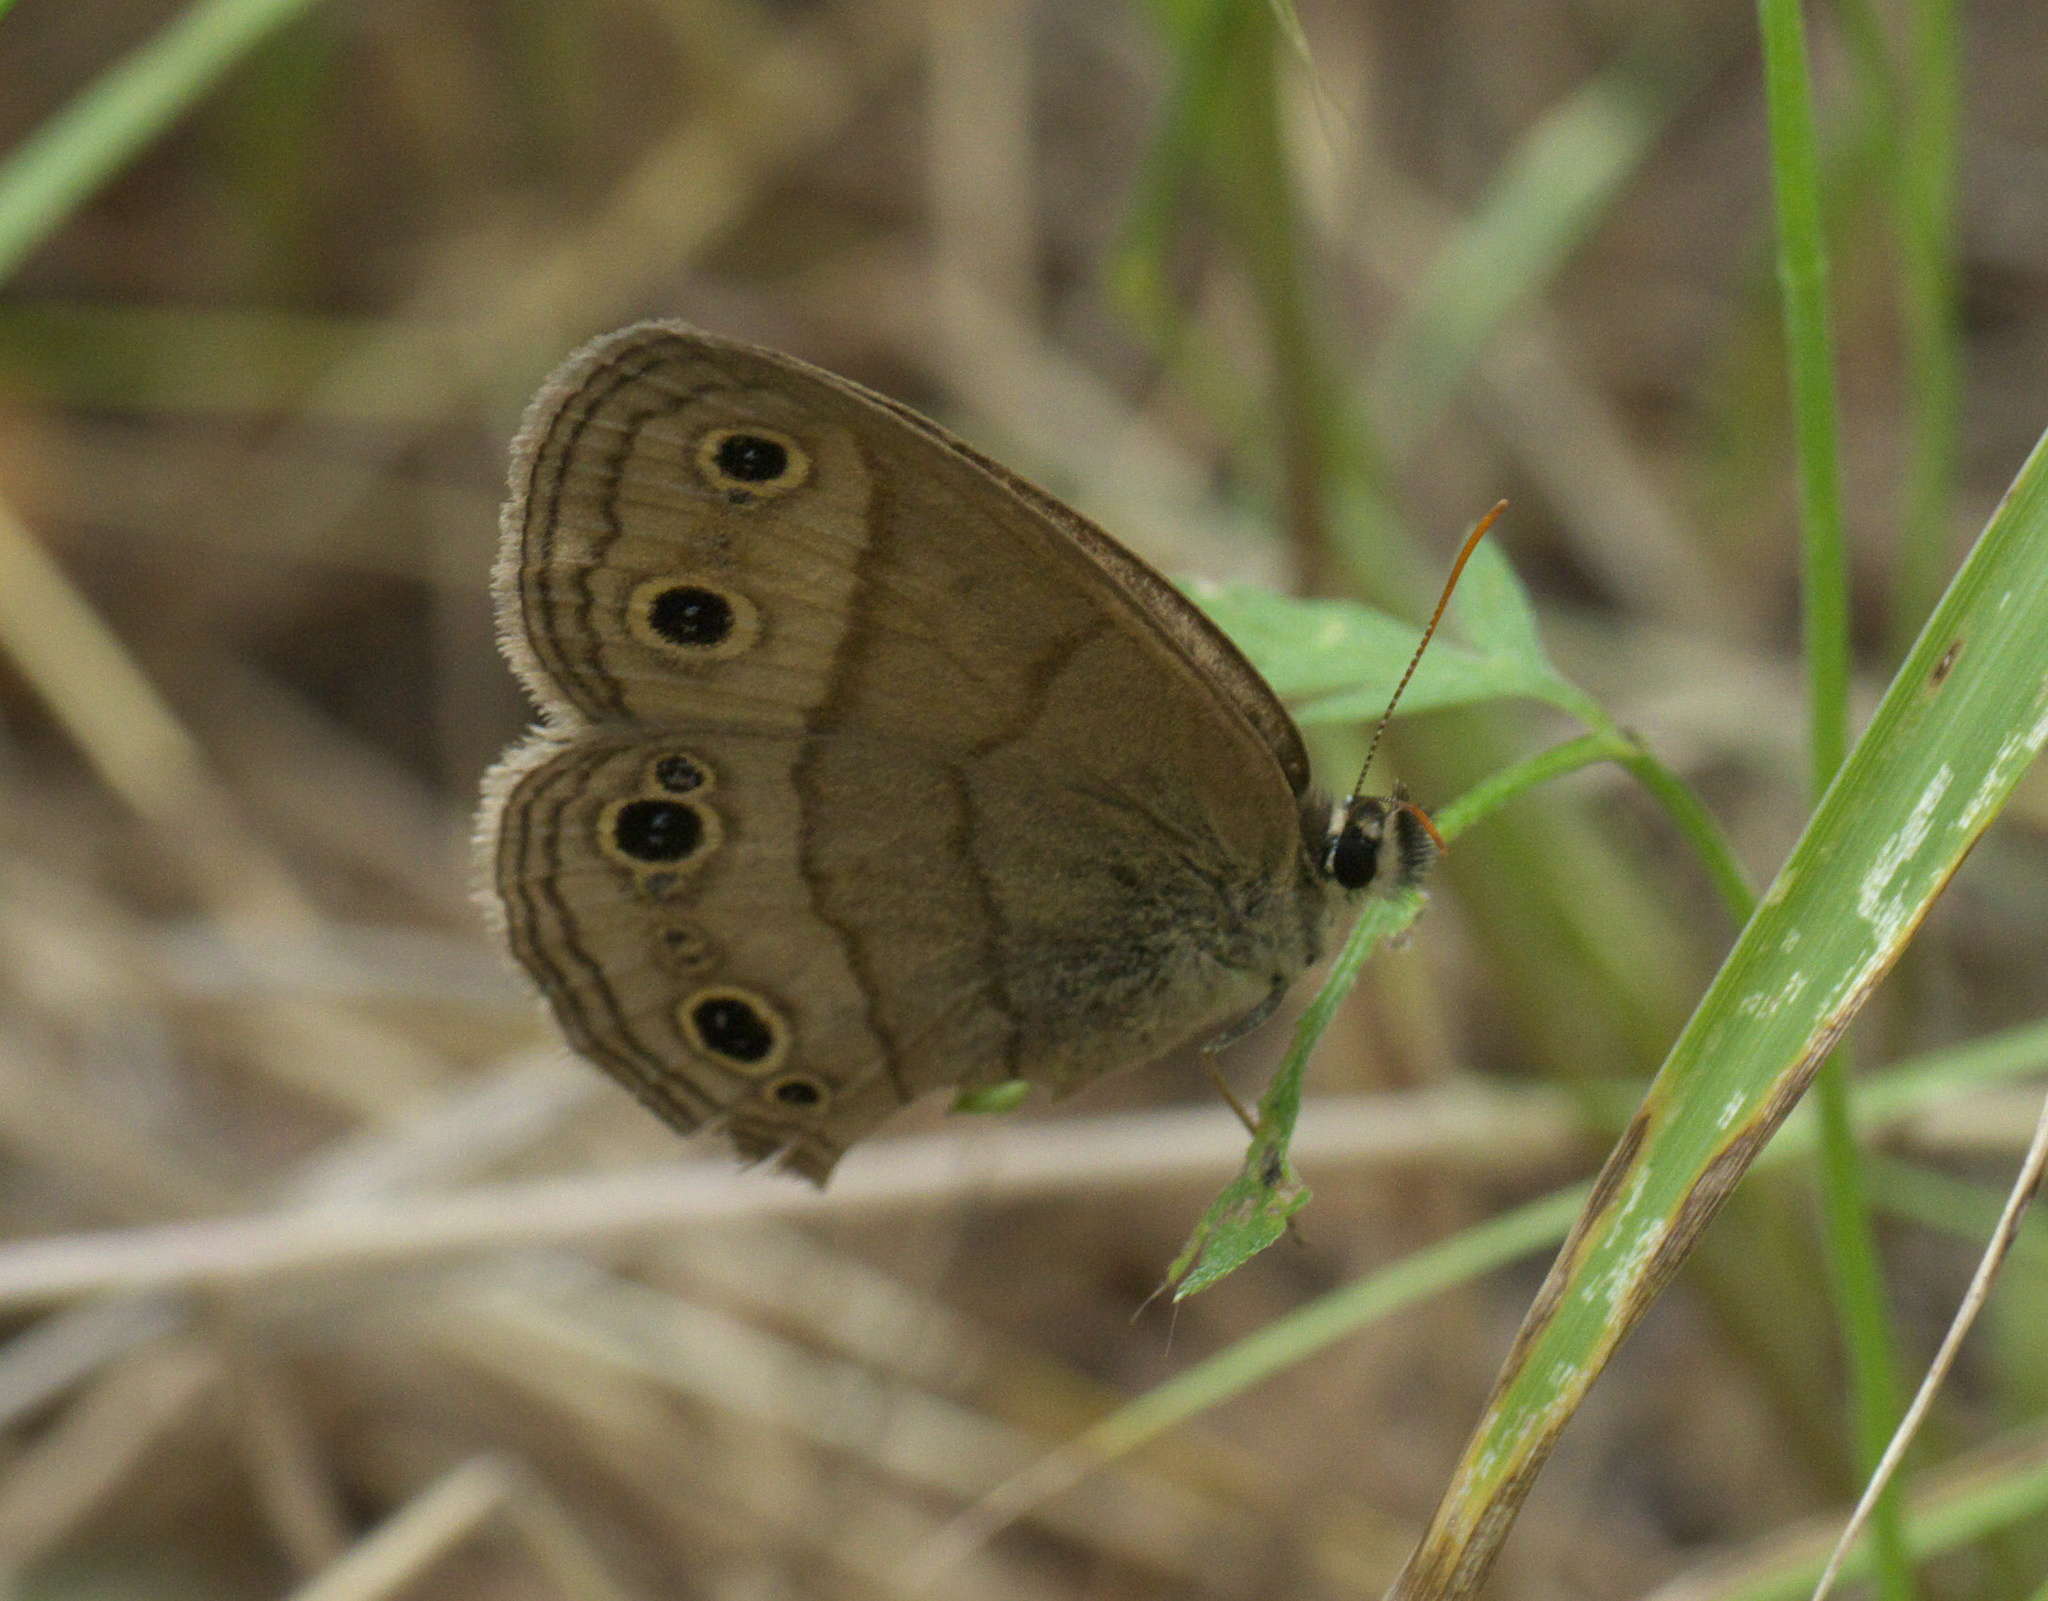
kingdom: Animalia
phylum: Arthropoda
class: Insecta
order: Lepidoptera
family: Nymphalidae
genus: Euptychia
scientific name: Euptychia cymela
